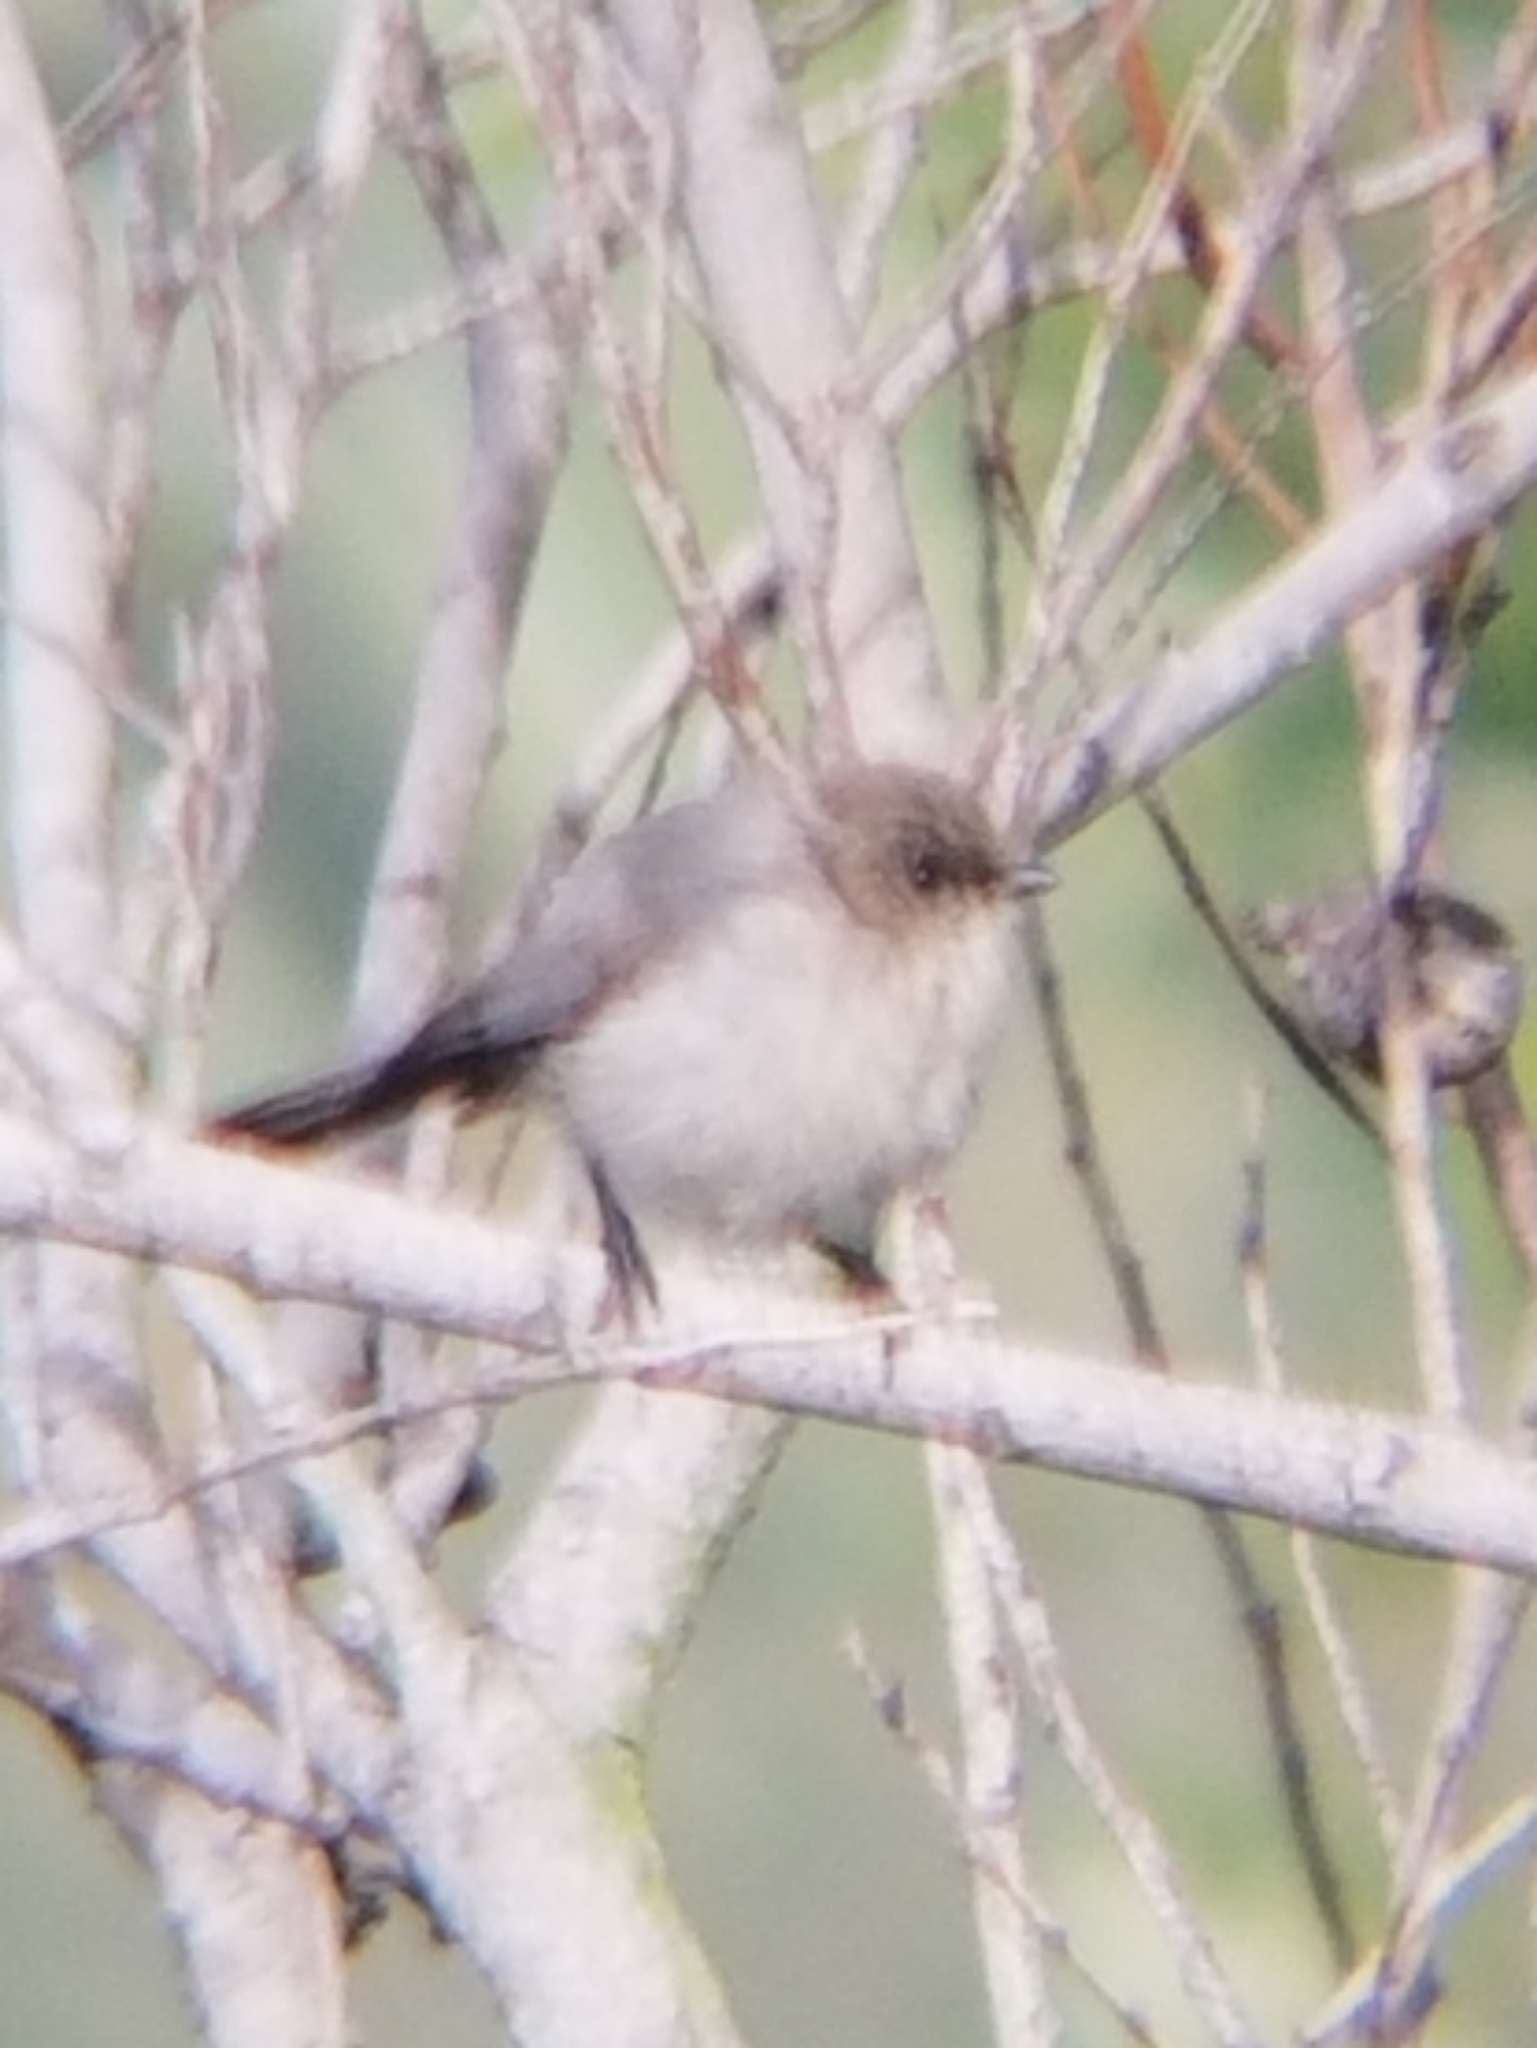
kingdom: Animalia
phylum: Chordata
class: Aves
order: Passeriformes
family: Aegithalidae
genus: Psaltriparus
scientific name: Psaltriparus minimus
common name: American bushtit
